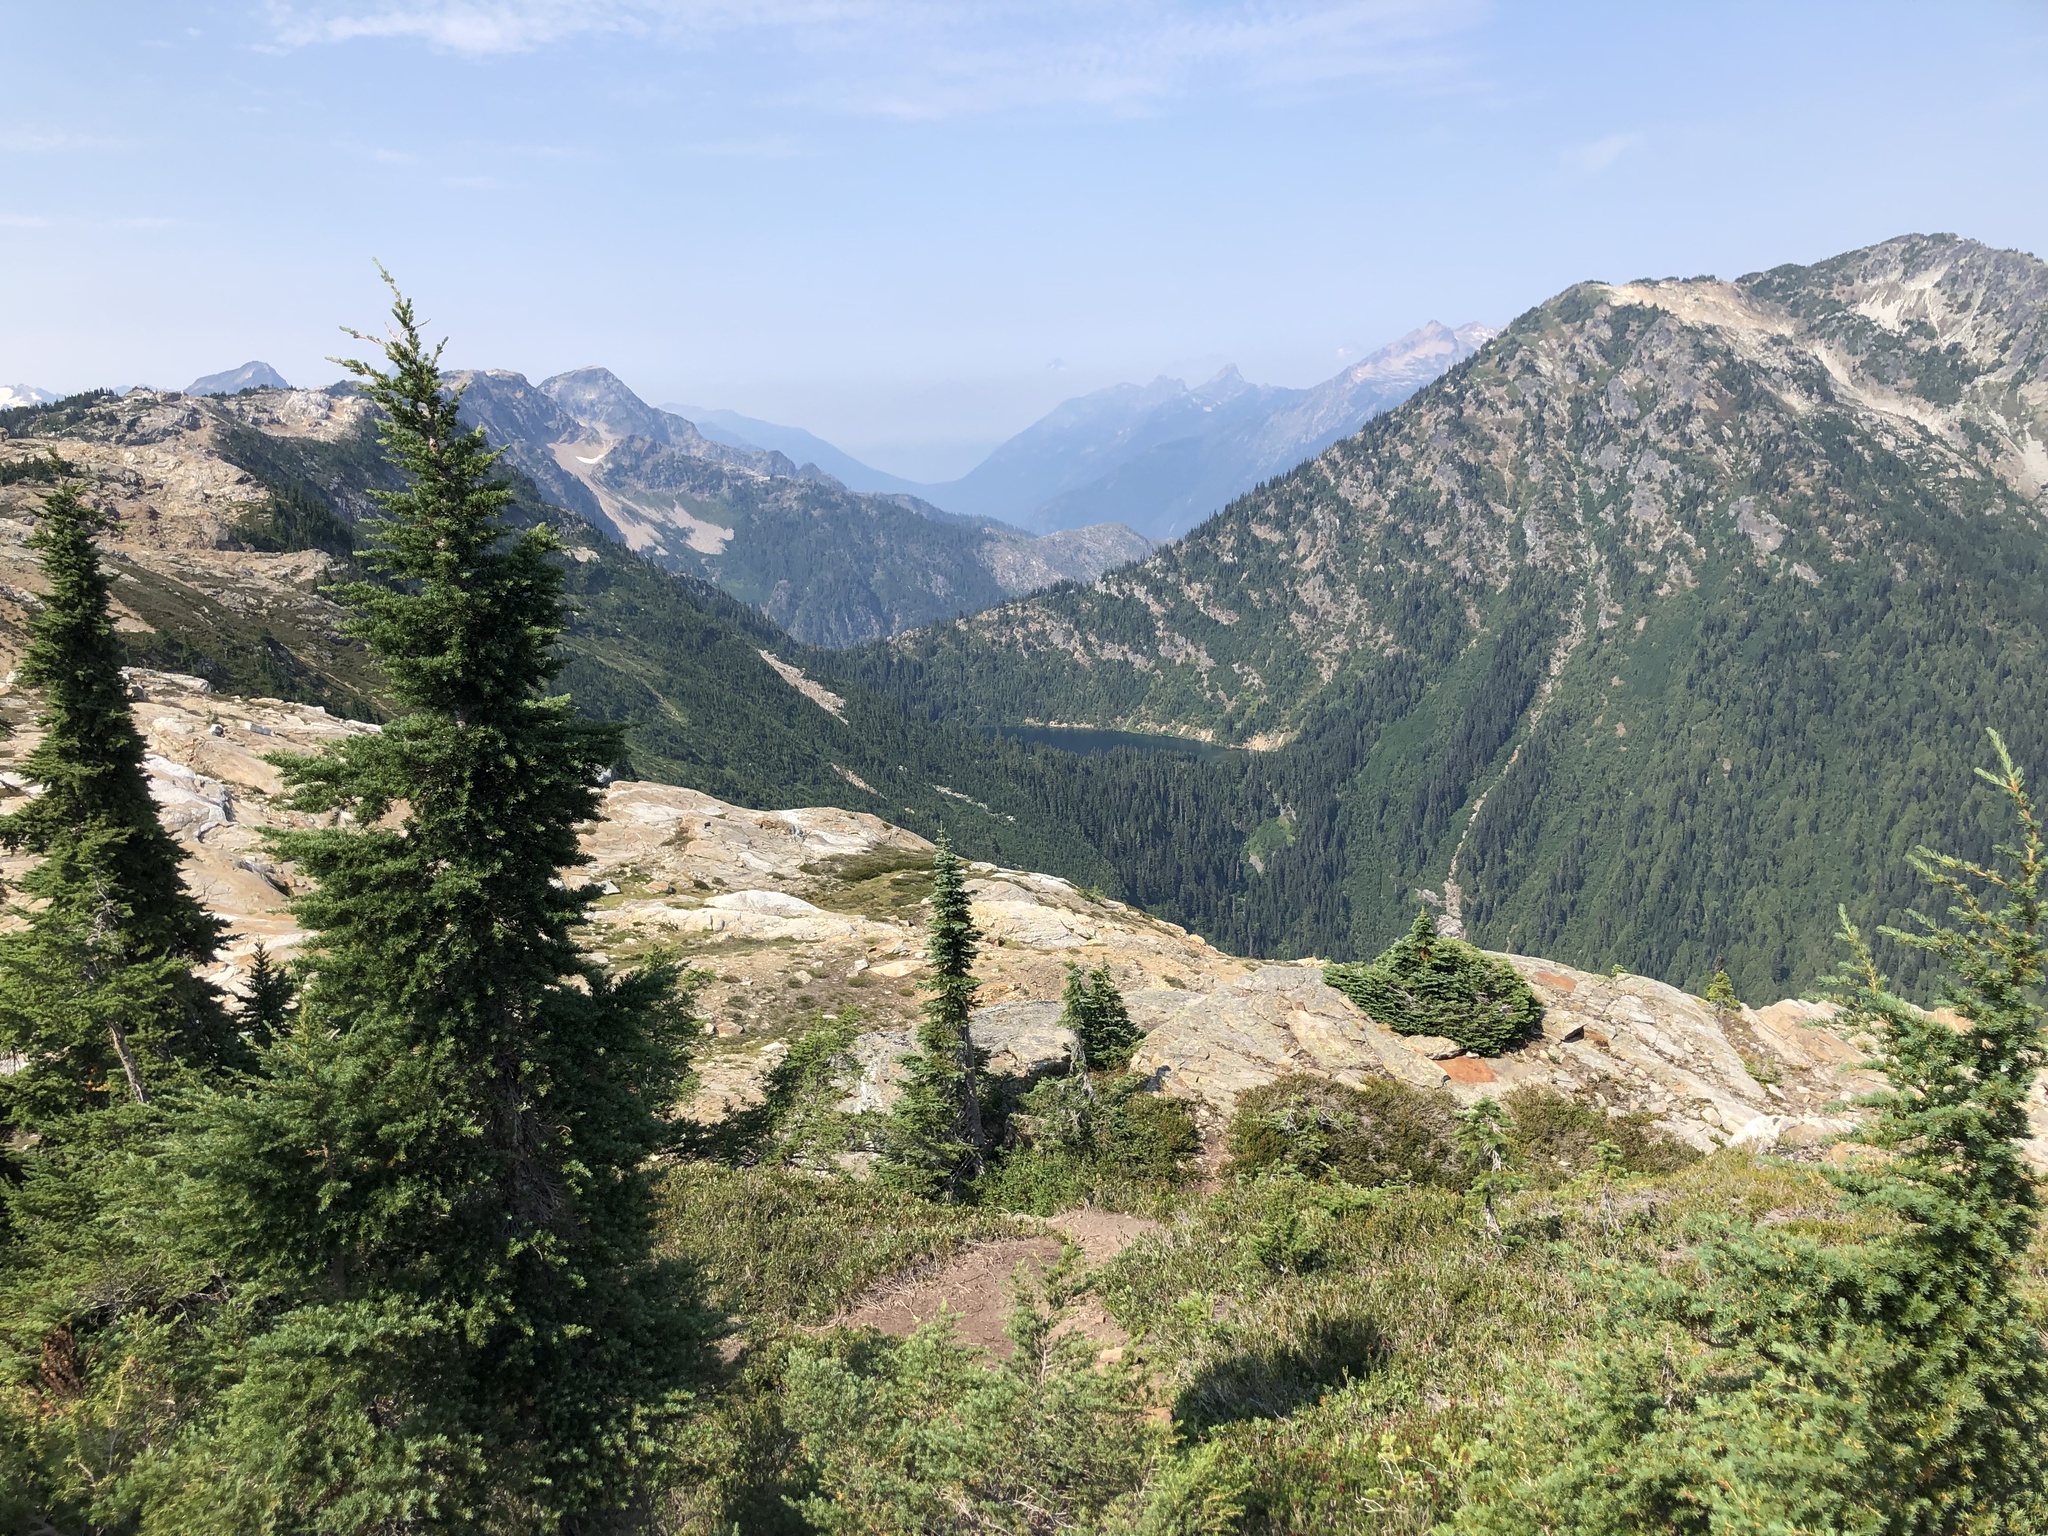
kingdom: Plantae
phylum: Tracheophyta
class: Pinopsida
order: Pinales
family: Pinaceae
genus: Abies
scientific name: Abies lasiocarpa
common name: Subalpine fir
